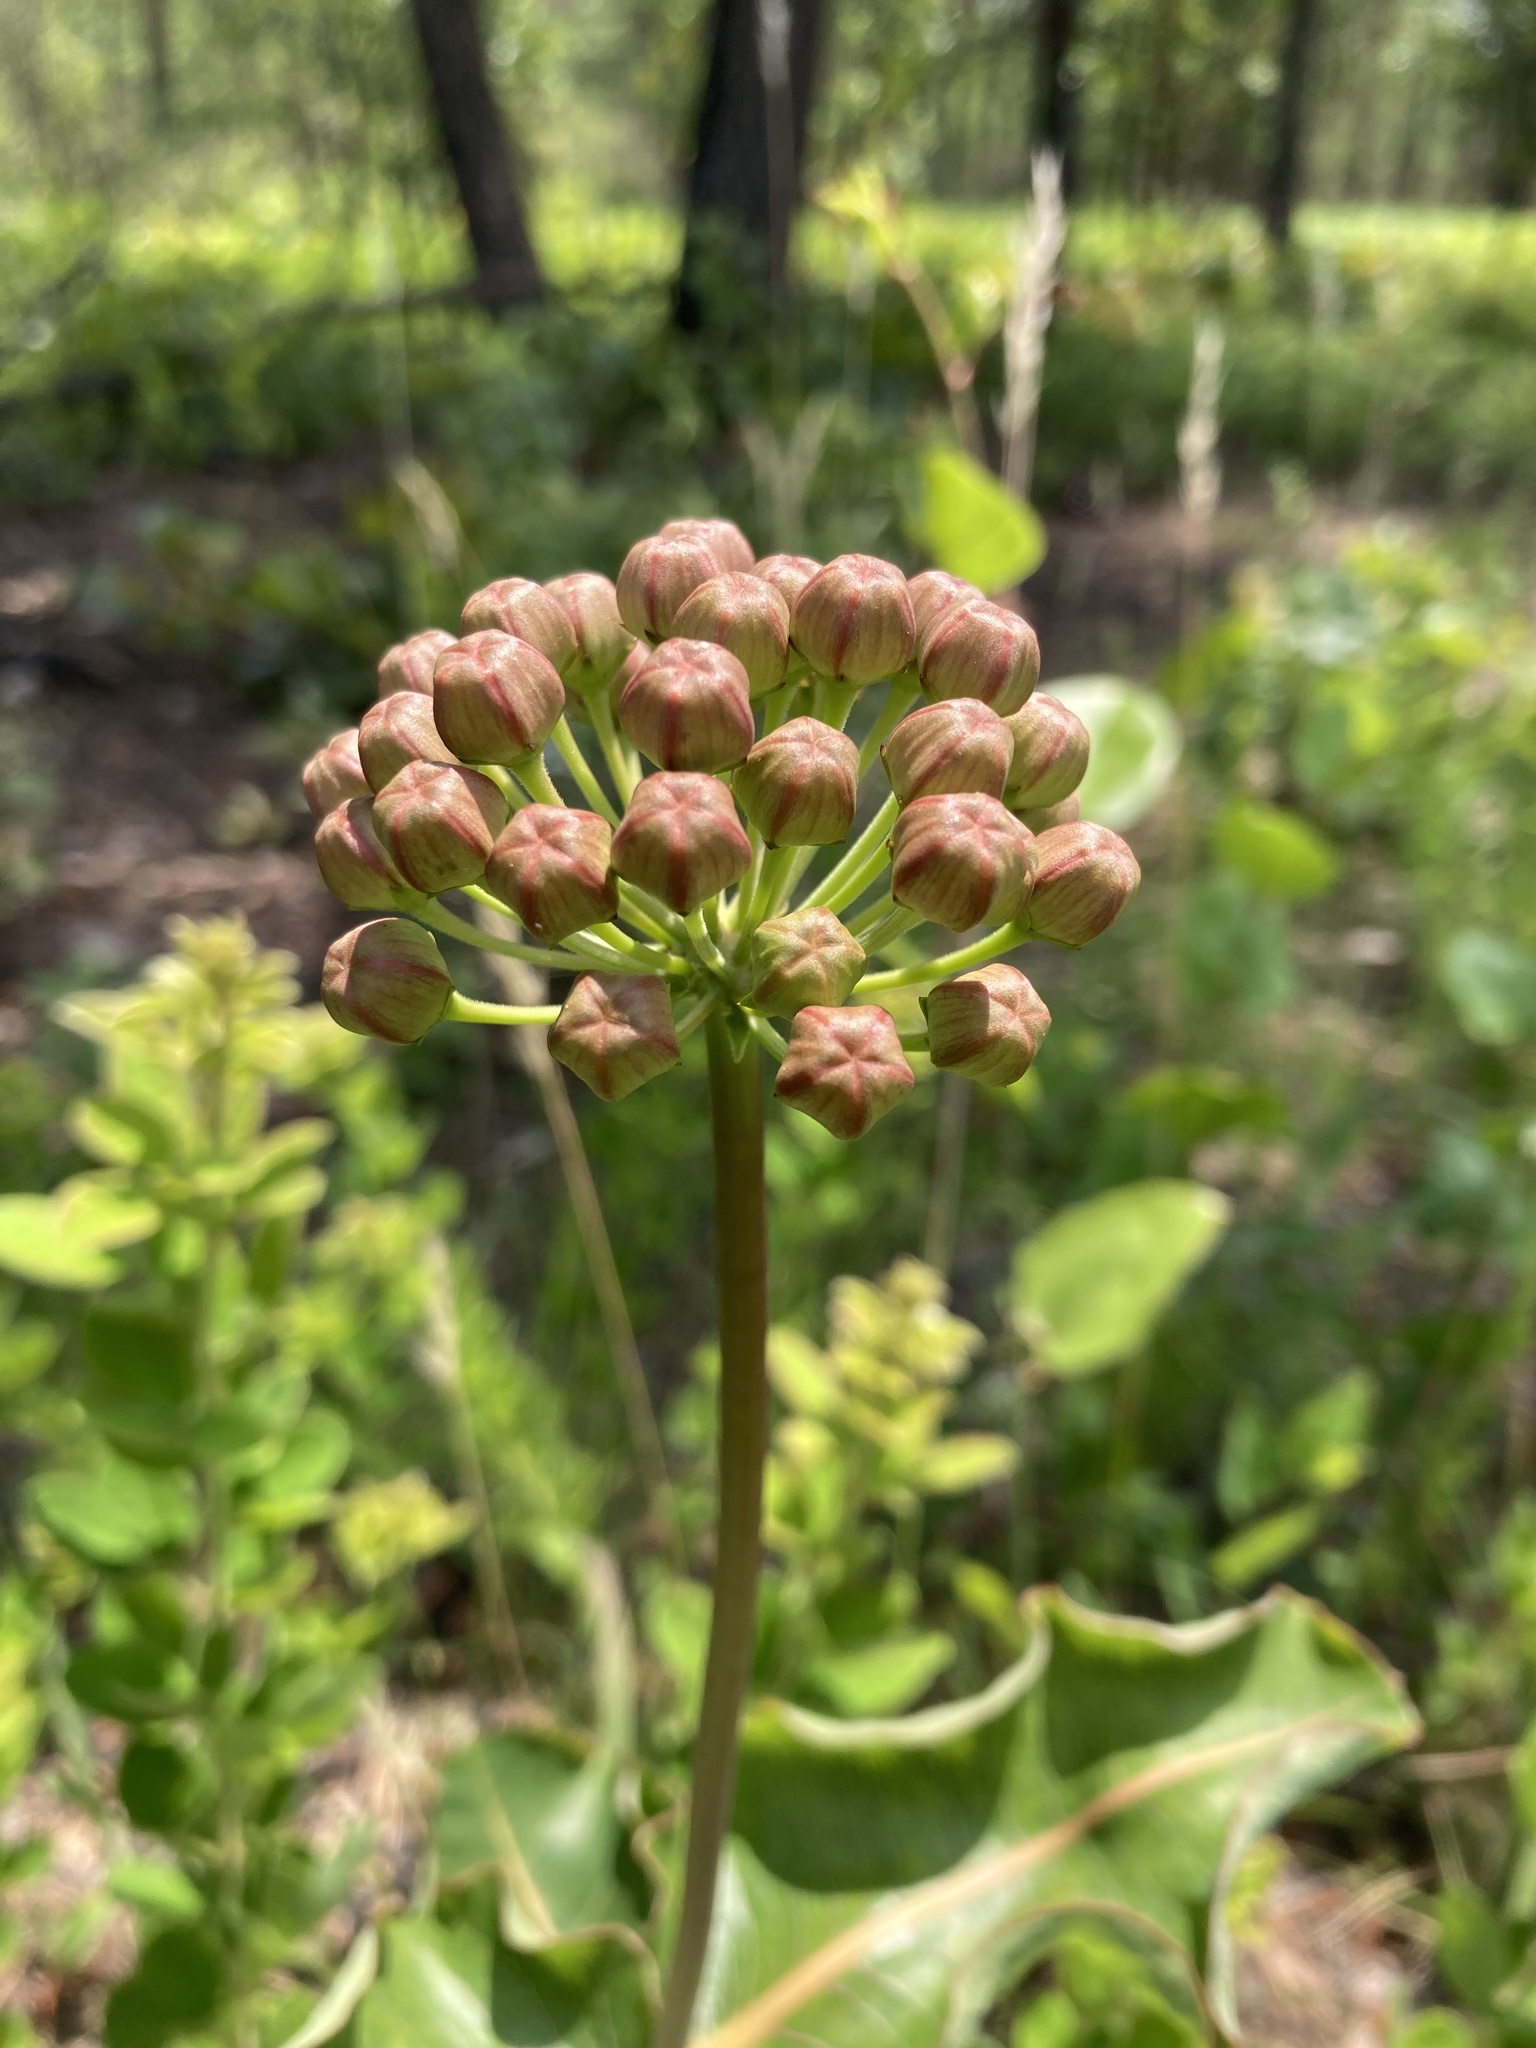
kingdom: Plantae
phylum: Tracheophyta
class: Magnoliopsida
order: Gentianales
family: Apocynaceae
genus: Asclepias
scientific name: Asclepias amplexicaulis
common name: Blunt-leaf milkweed
